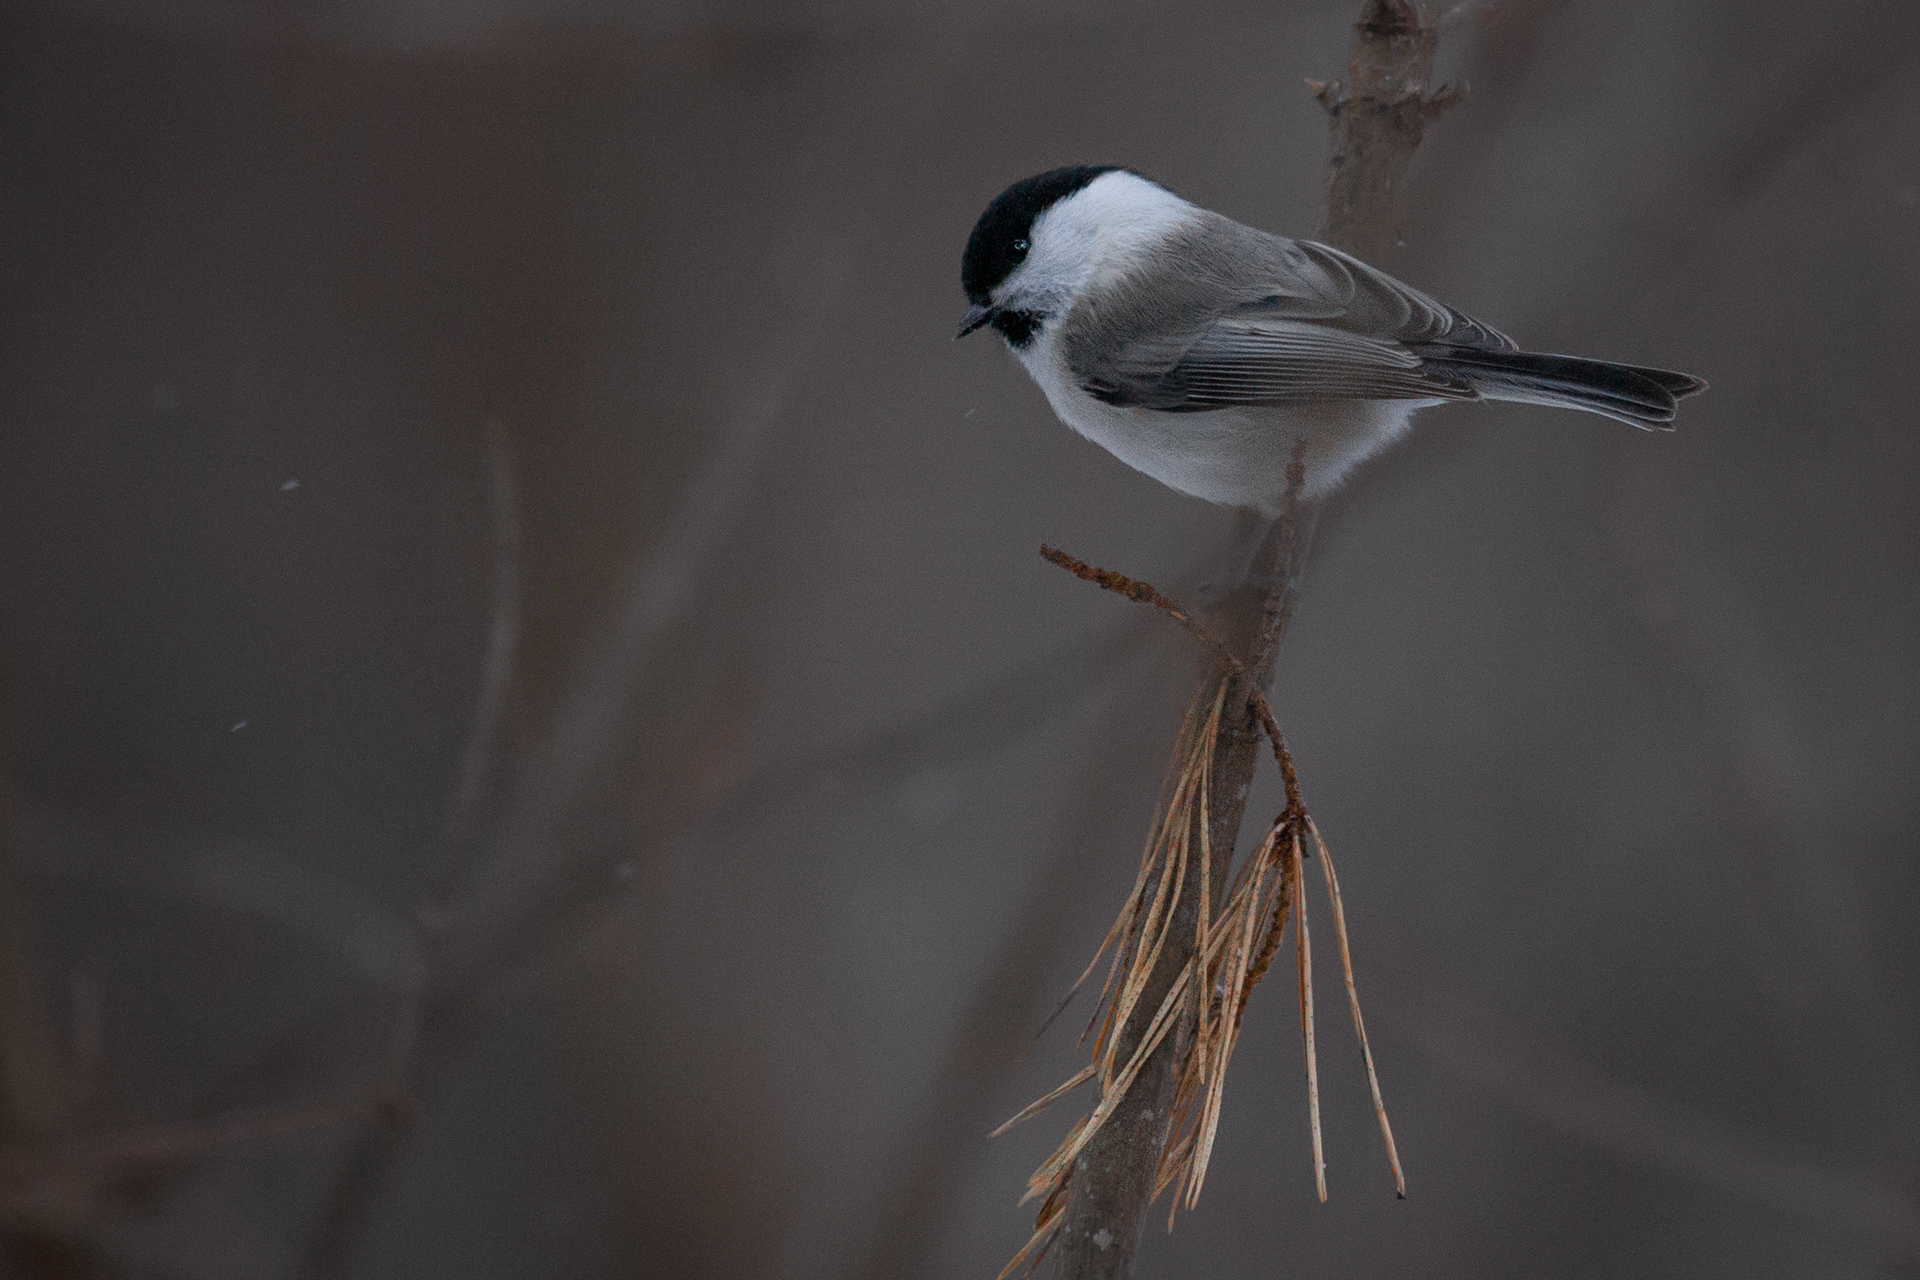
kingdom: Animalia
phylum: Chordata
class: Aves
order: Passeriformes
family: Paridae
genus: Poecile
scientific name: Poecile montanus
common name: Willow tit
